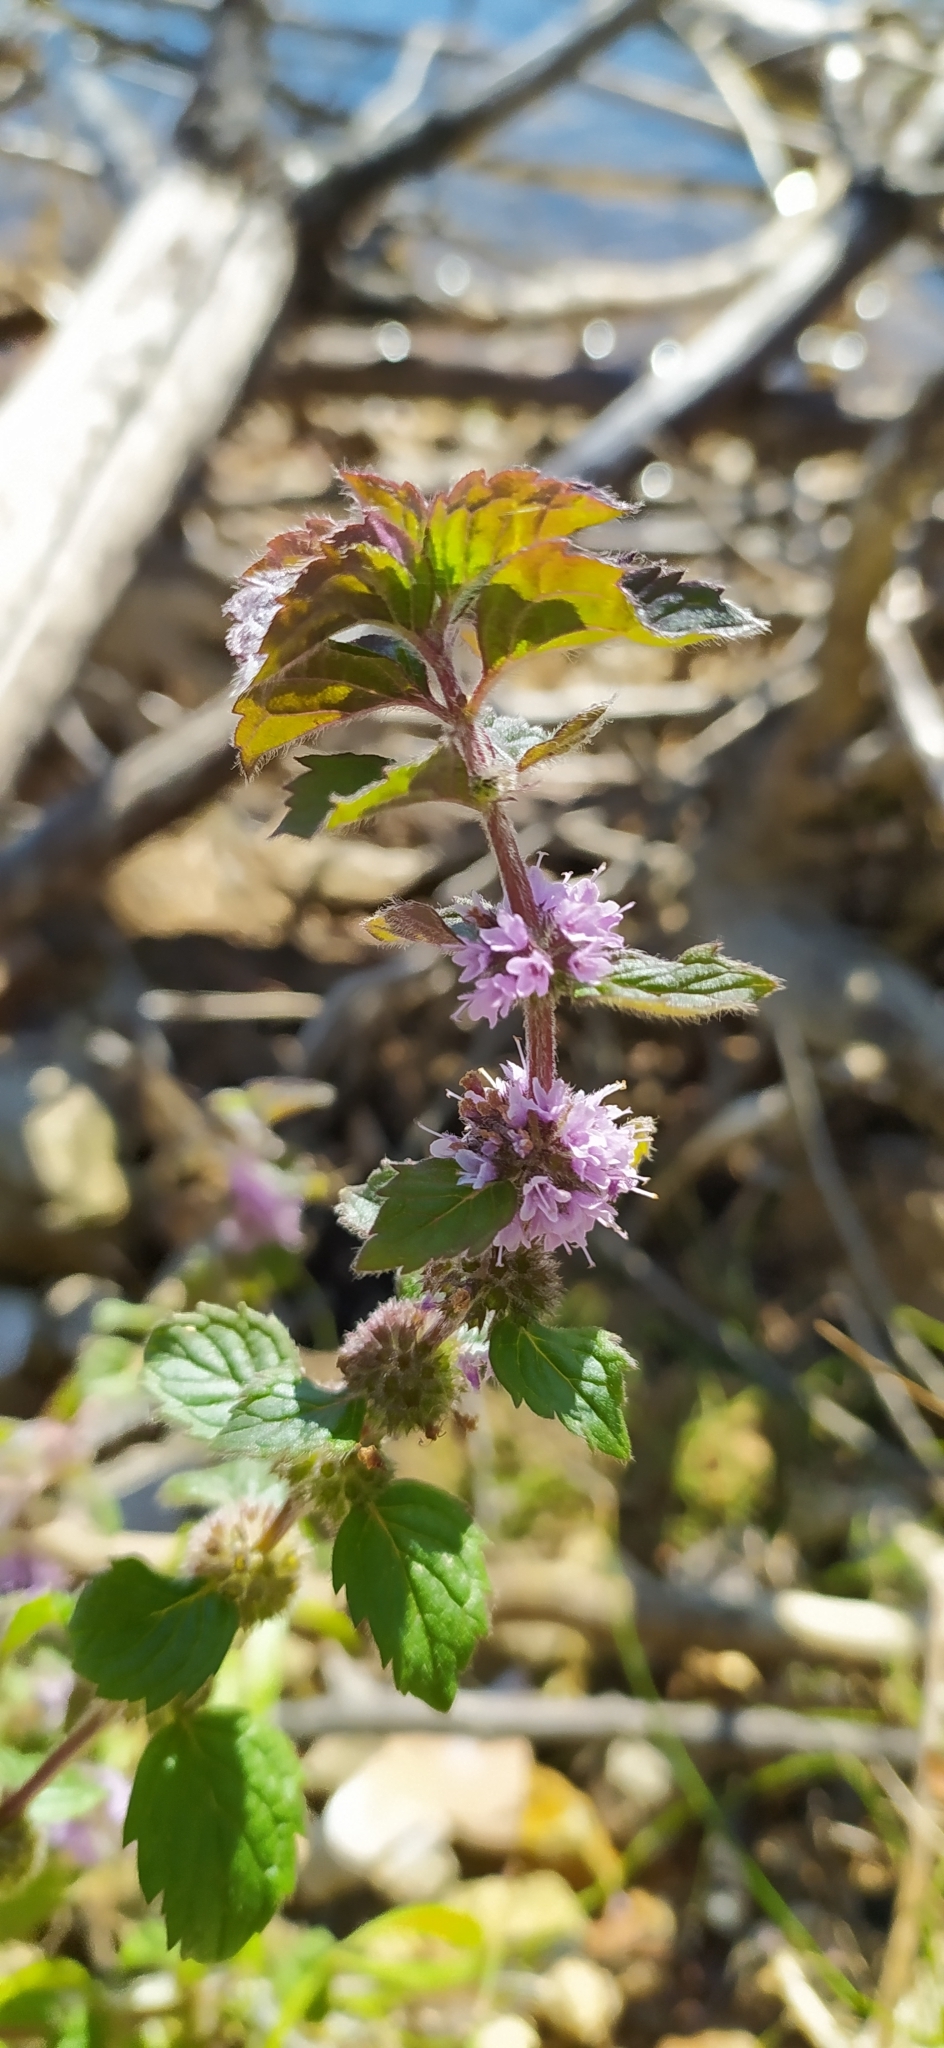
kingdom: Plantae
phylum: Tracheophyta
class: Magnoliopsida
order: Lamiales
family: Lamiaceae
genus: Mentha
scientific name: Mentha arvensis
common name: Corn mint
